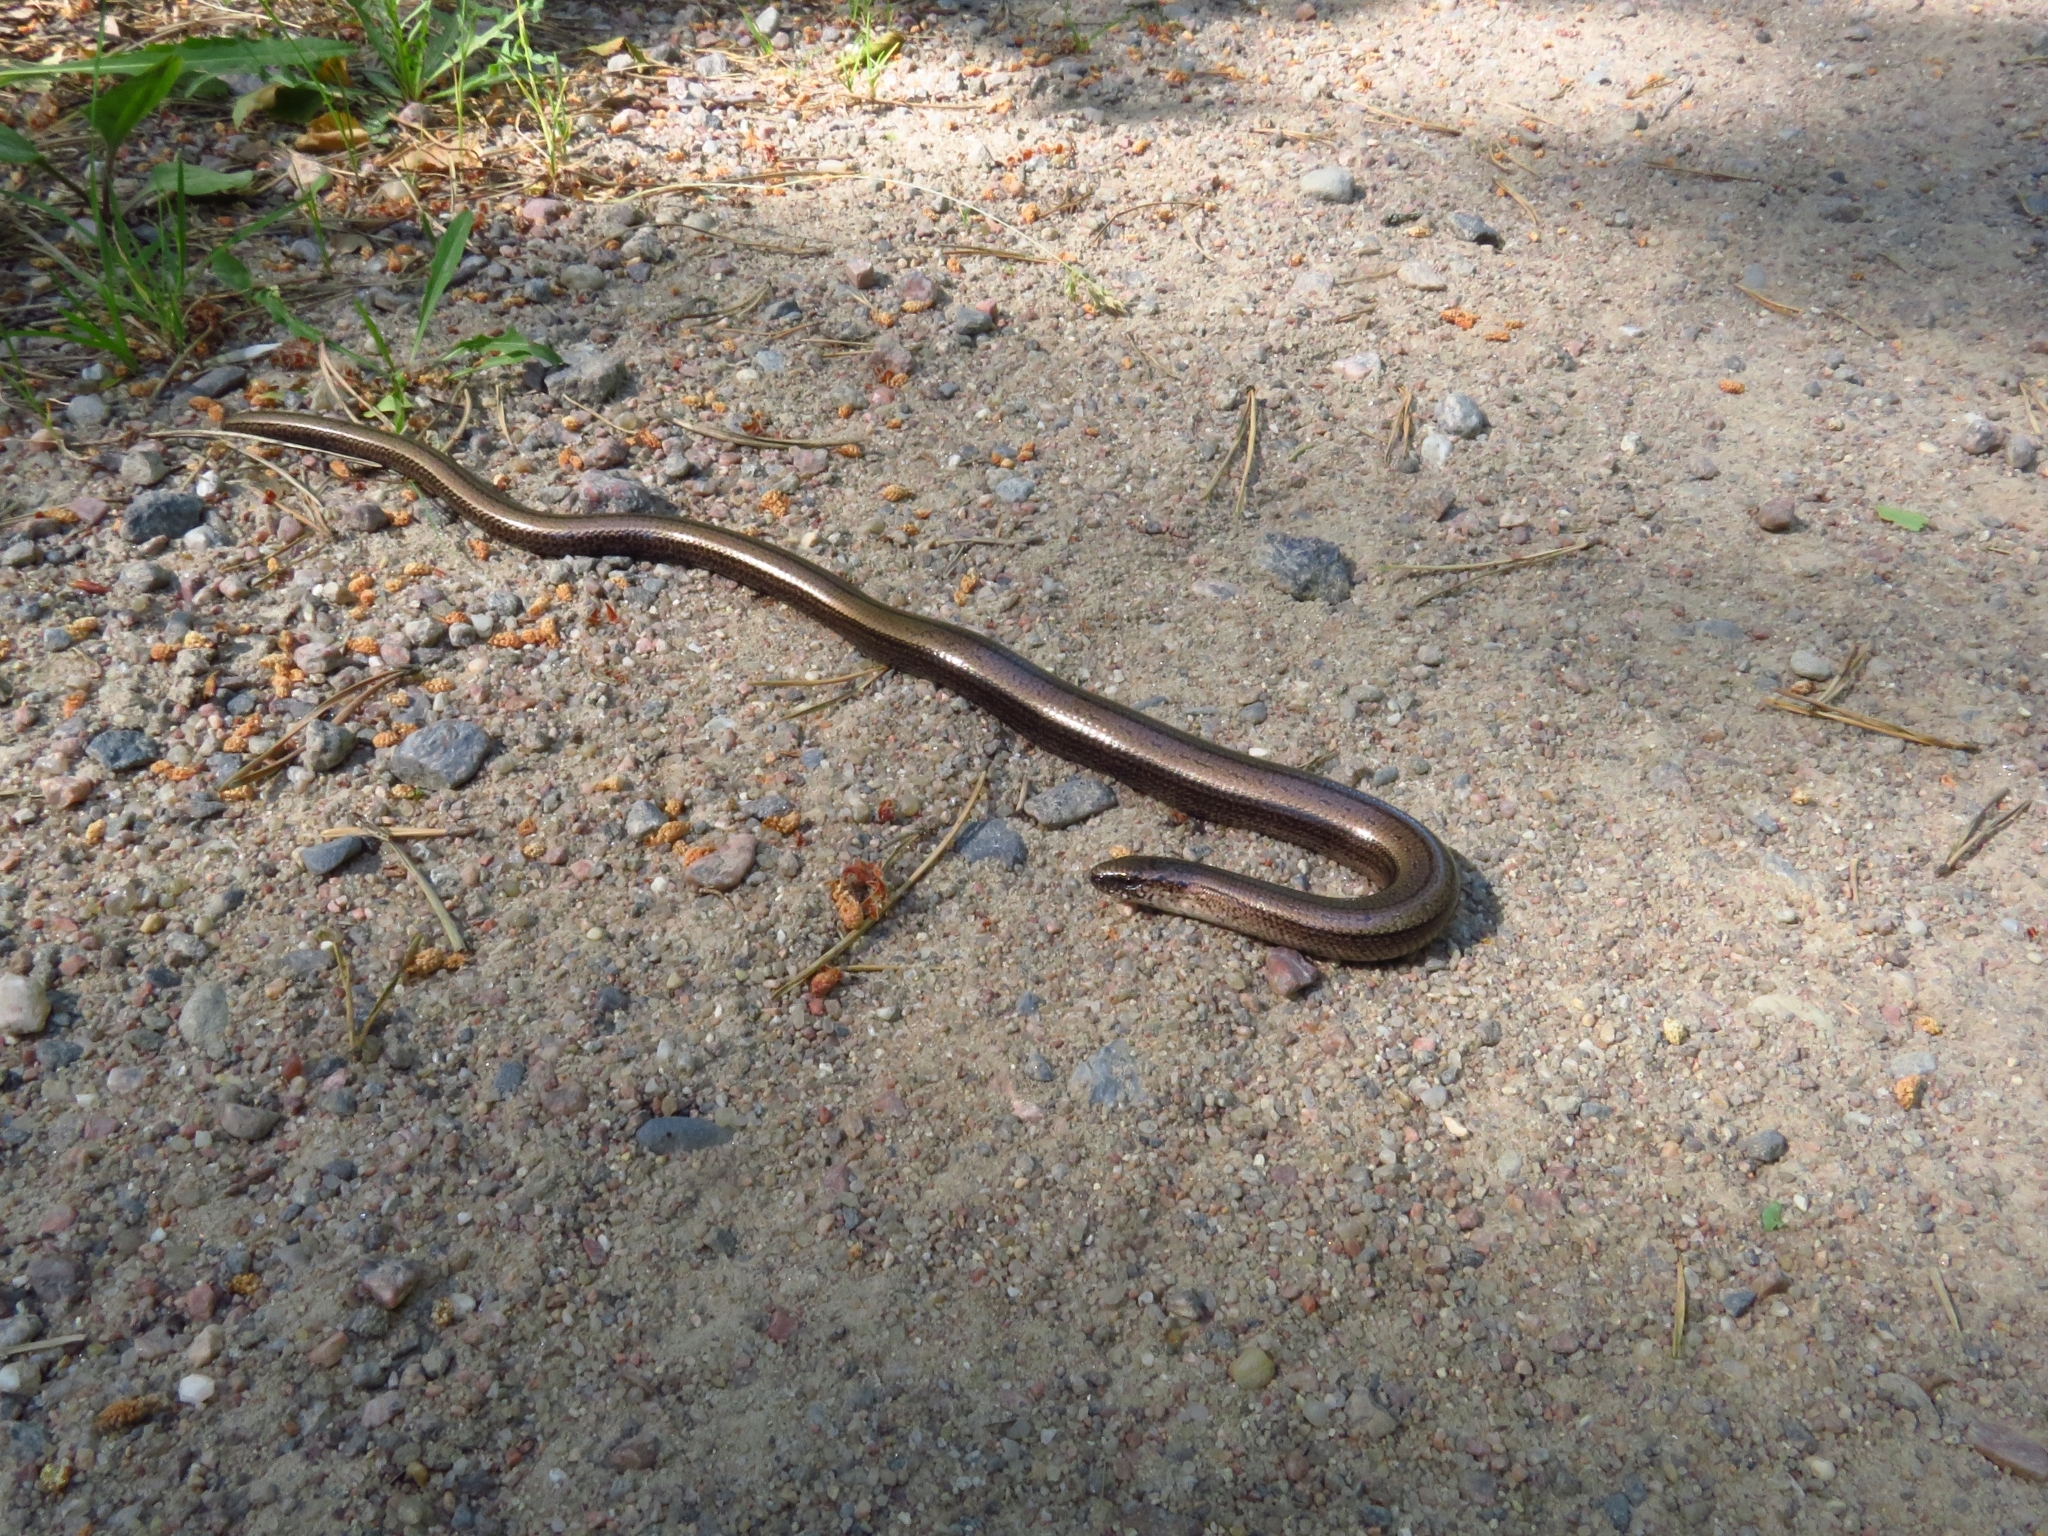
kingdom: Animalia
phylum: Chordata
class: Squamata
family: Anguidae
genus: Anguis
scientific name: Anguis colchica
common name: Slow worm
